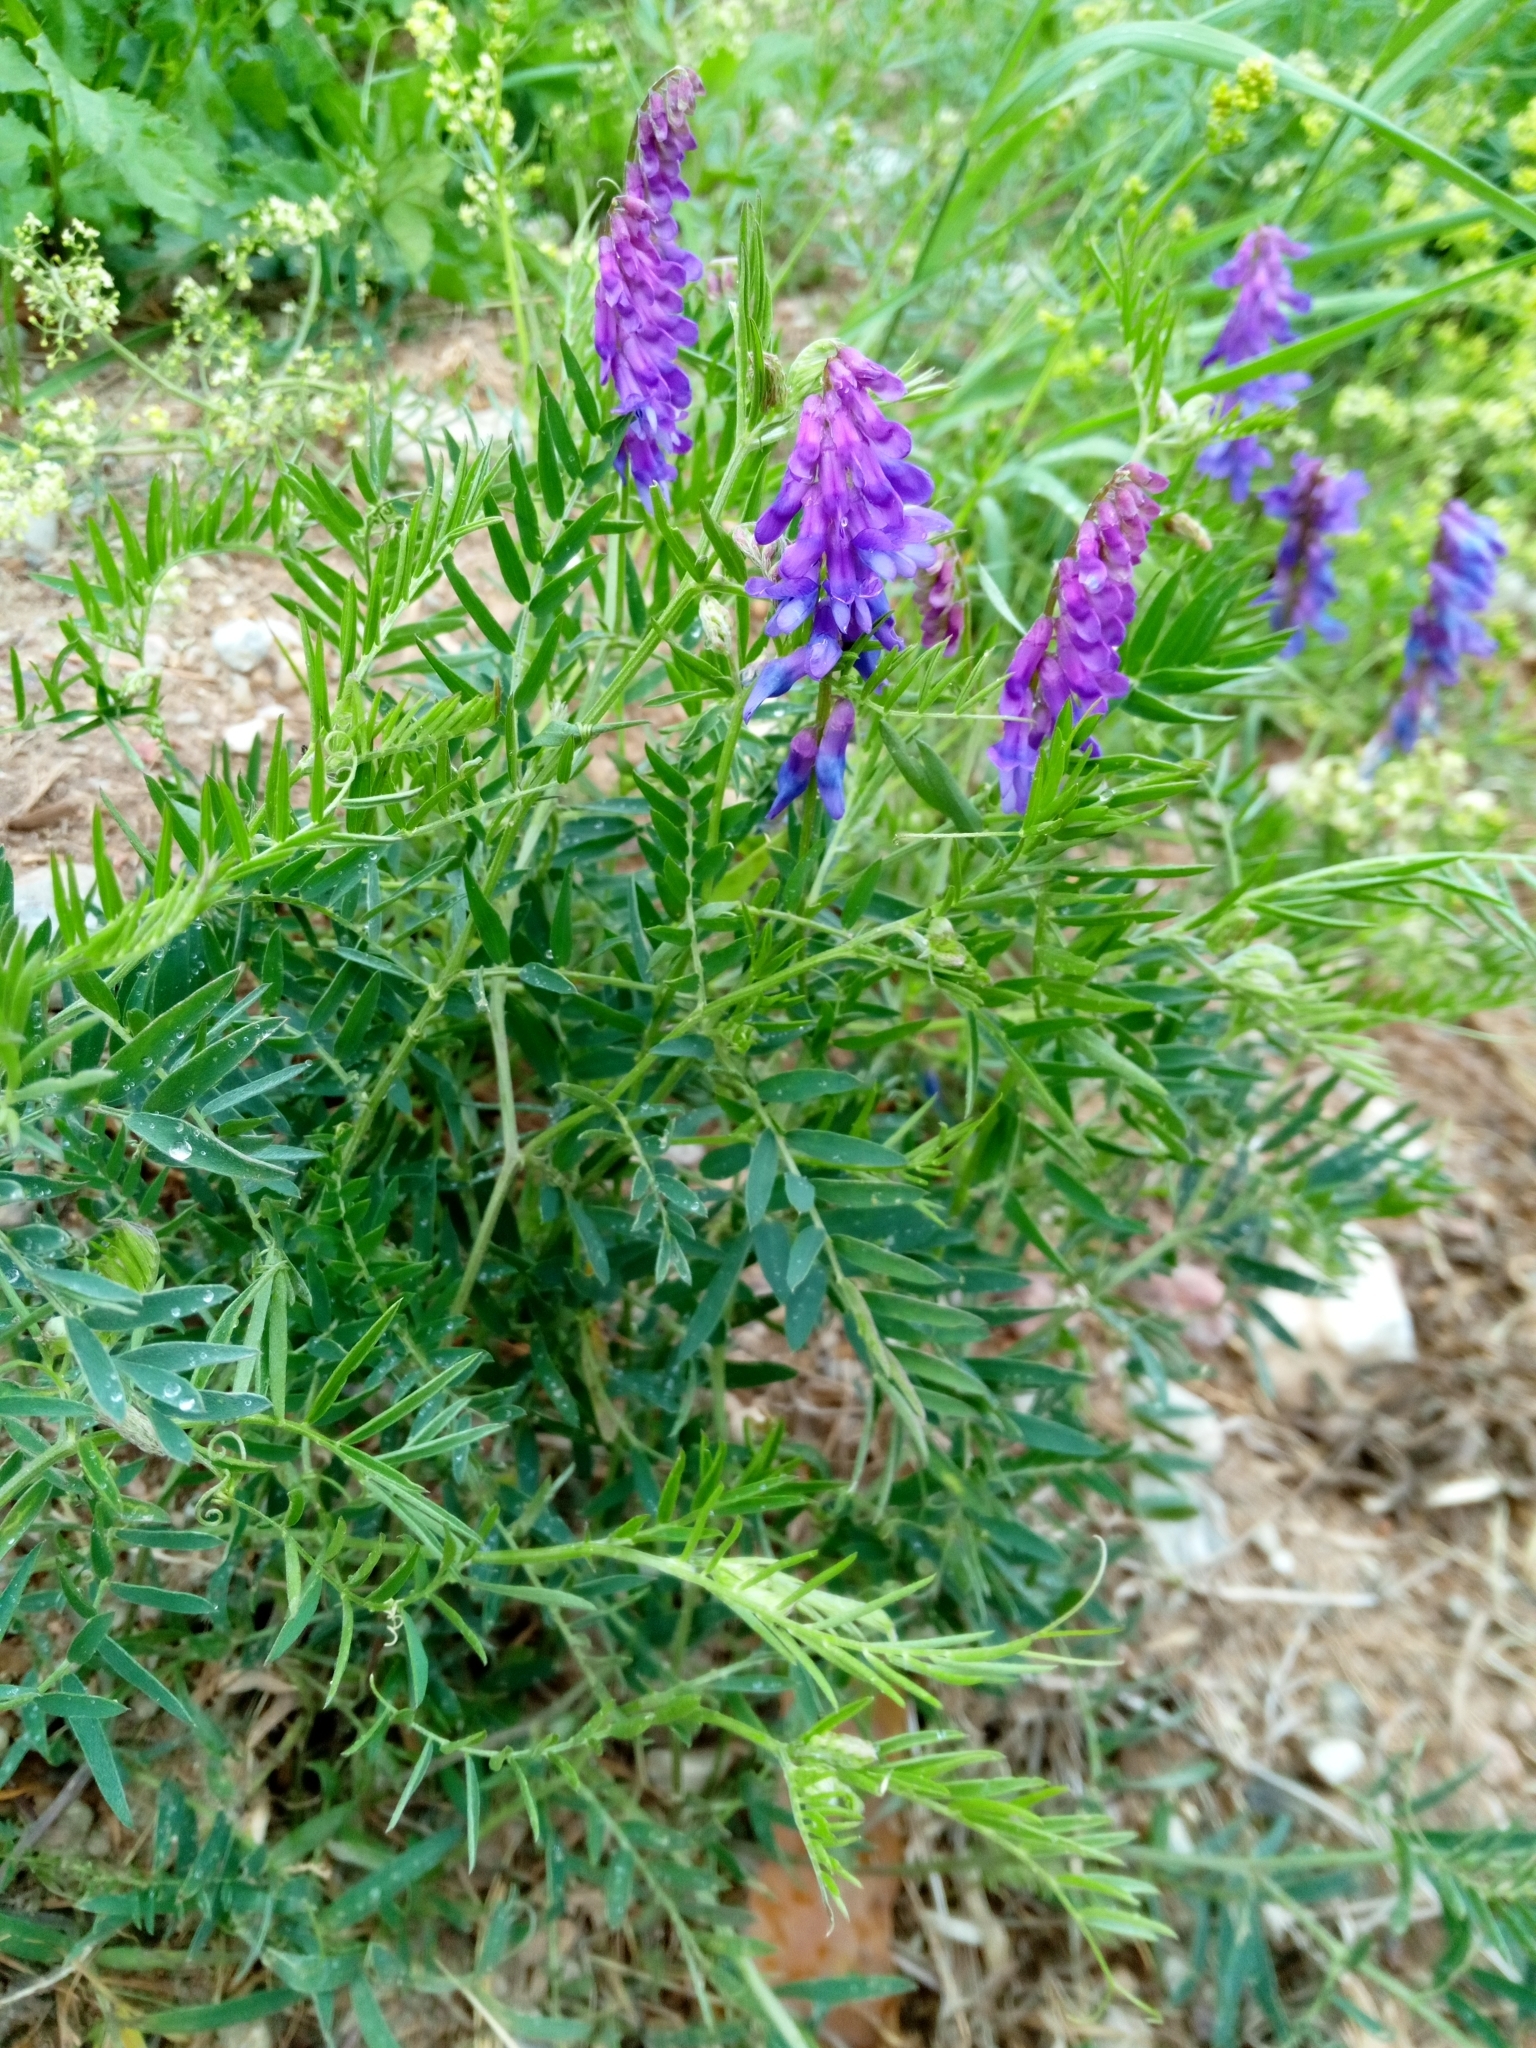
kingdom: Plantae
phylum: Tracheophyta
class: Magnoliopsida
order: Fabales
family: Fabaceae
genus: Vicia
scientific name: Vicia cracca
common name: Bird vetch
